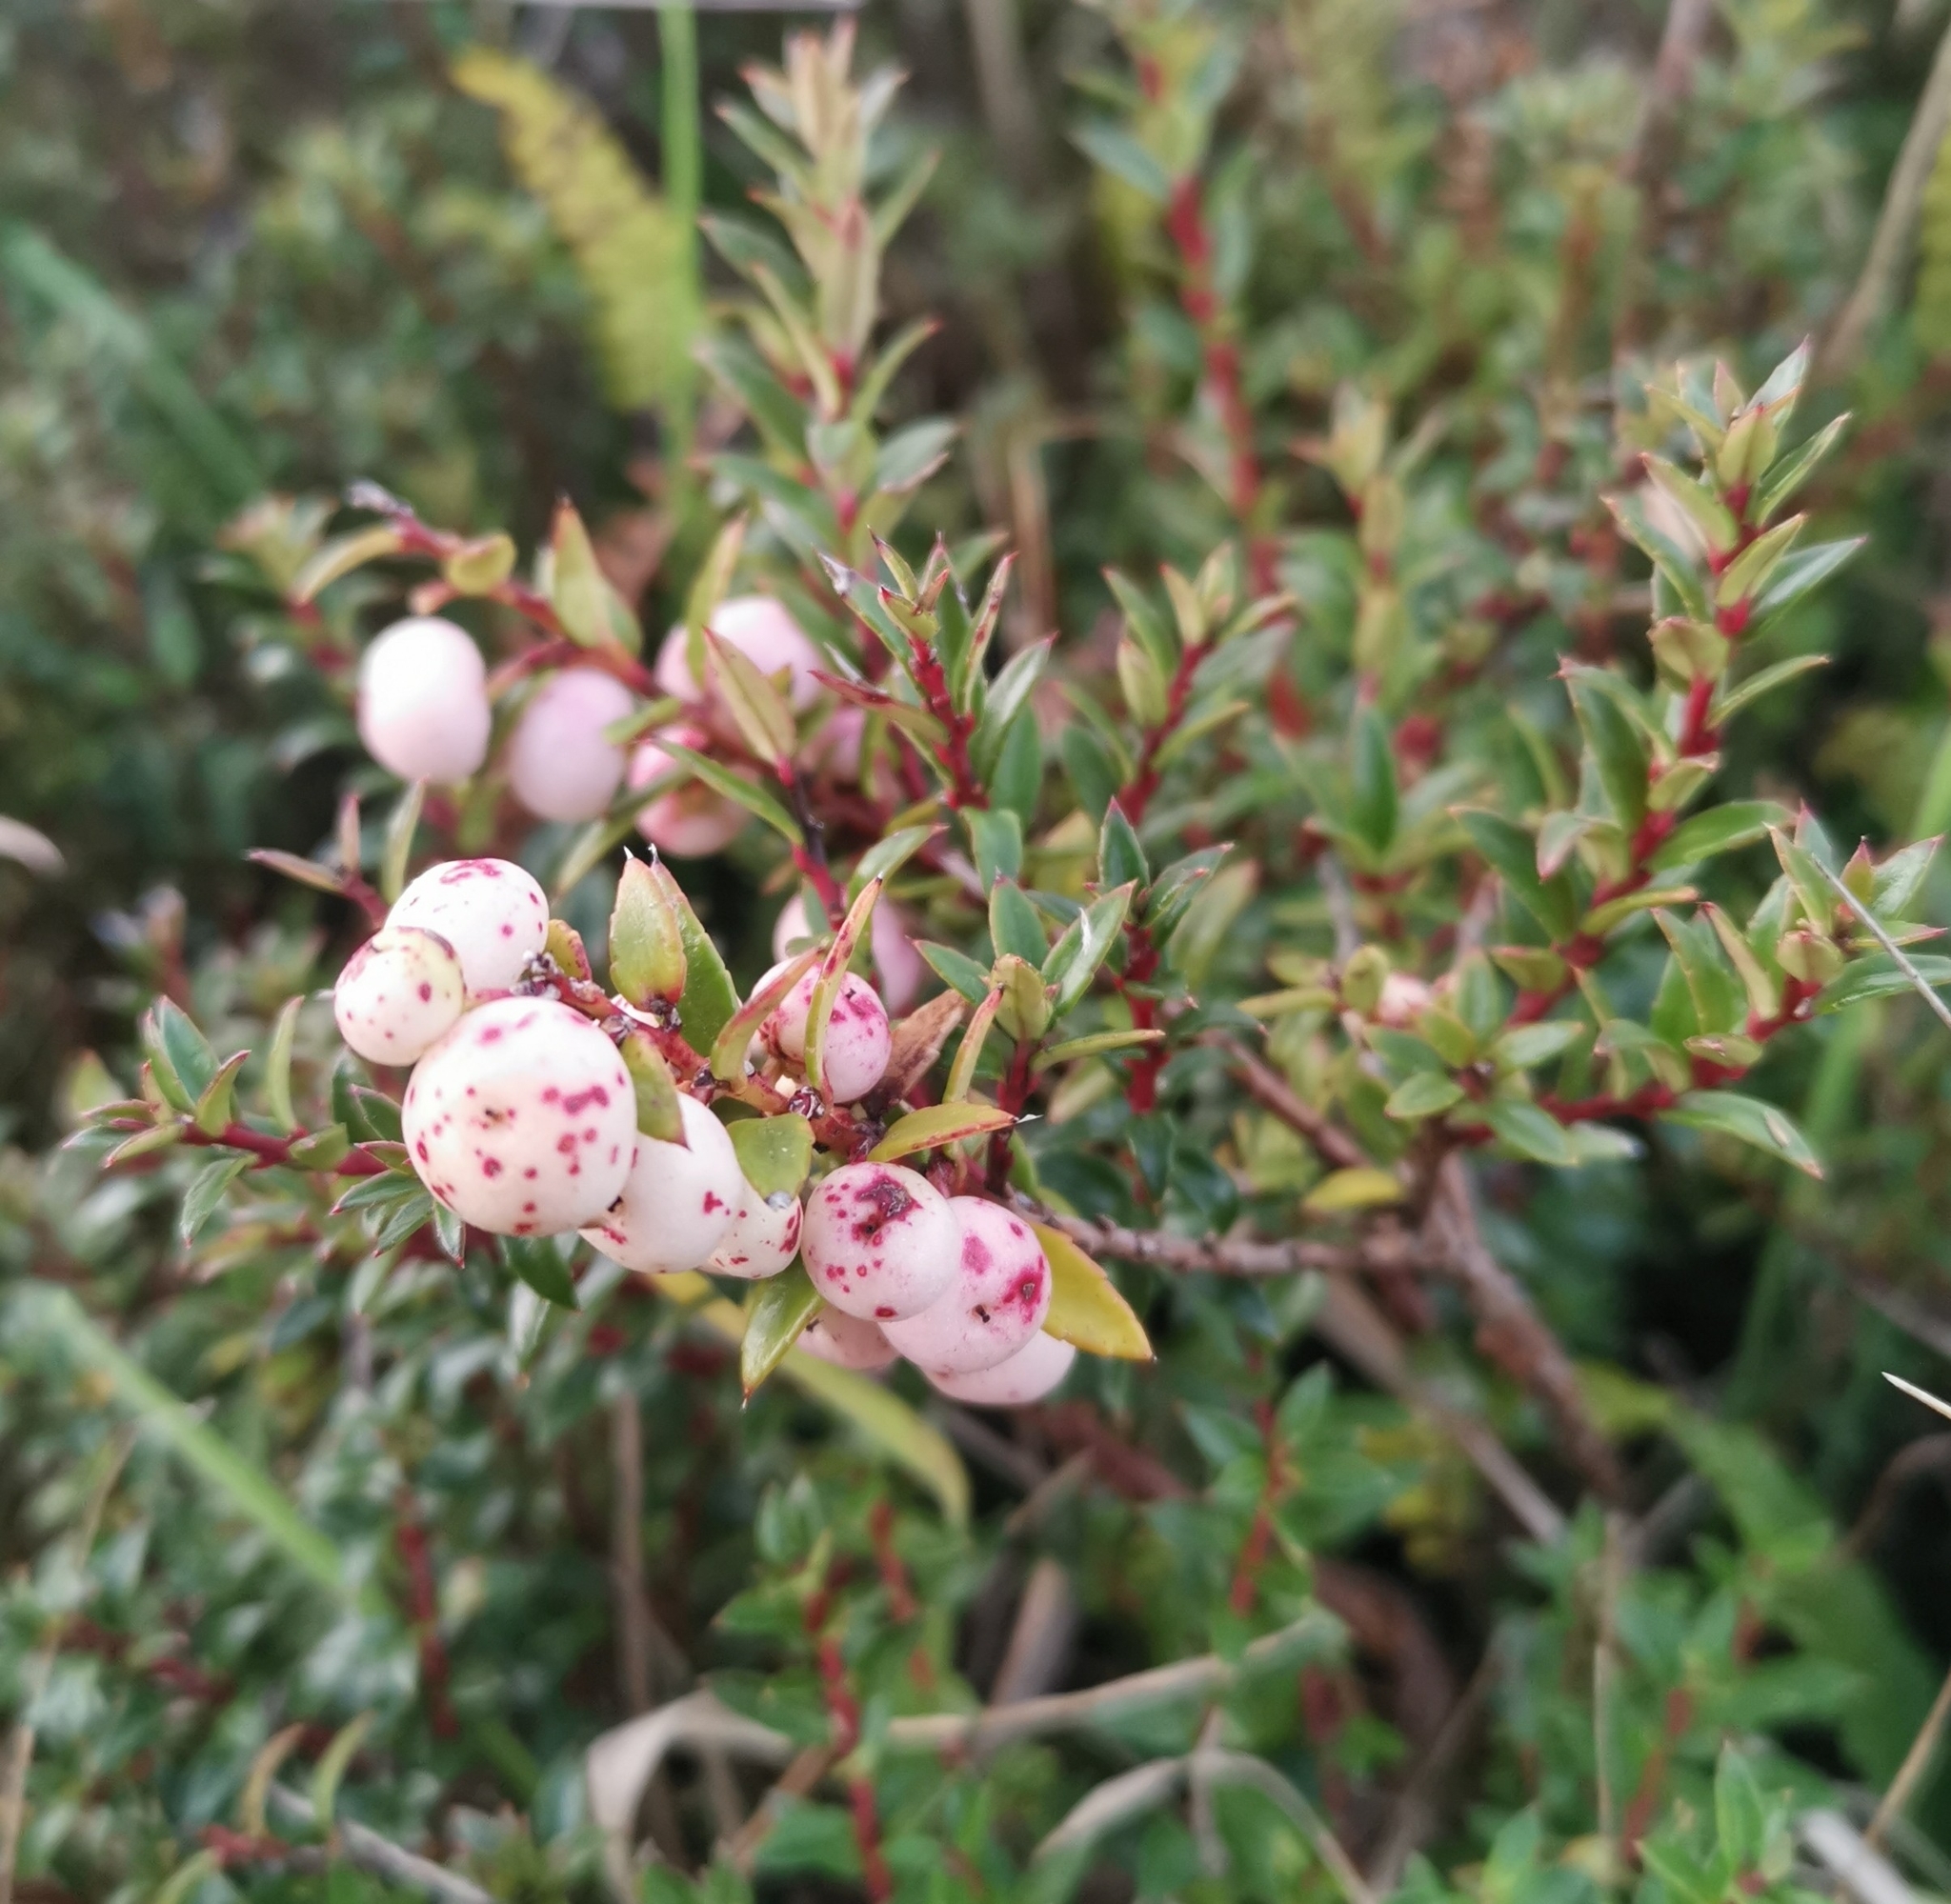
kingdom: Plantae
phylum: Tracheophyta
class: Magnoliopsida
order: Ericales
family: Ericaceae
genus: Gaultheria
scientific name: Gaultheria mucronata
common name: Prickly heath
